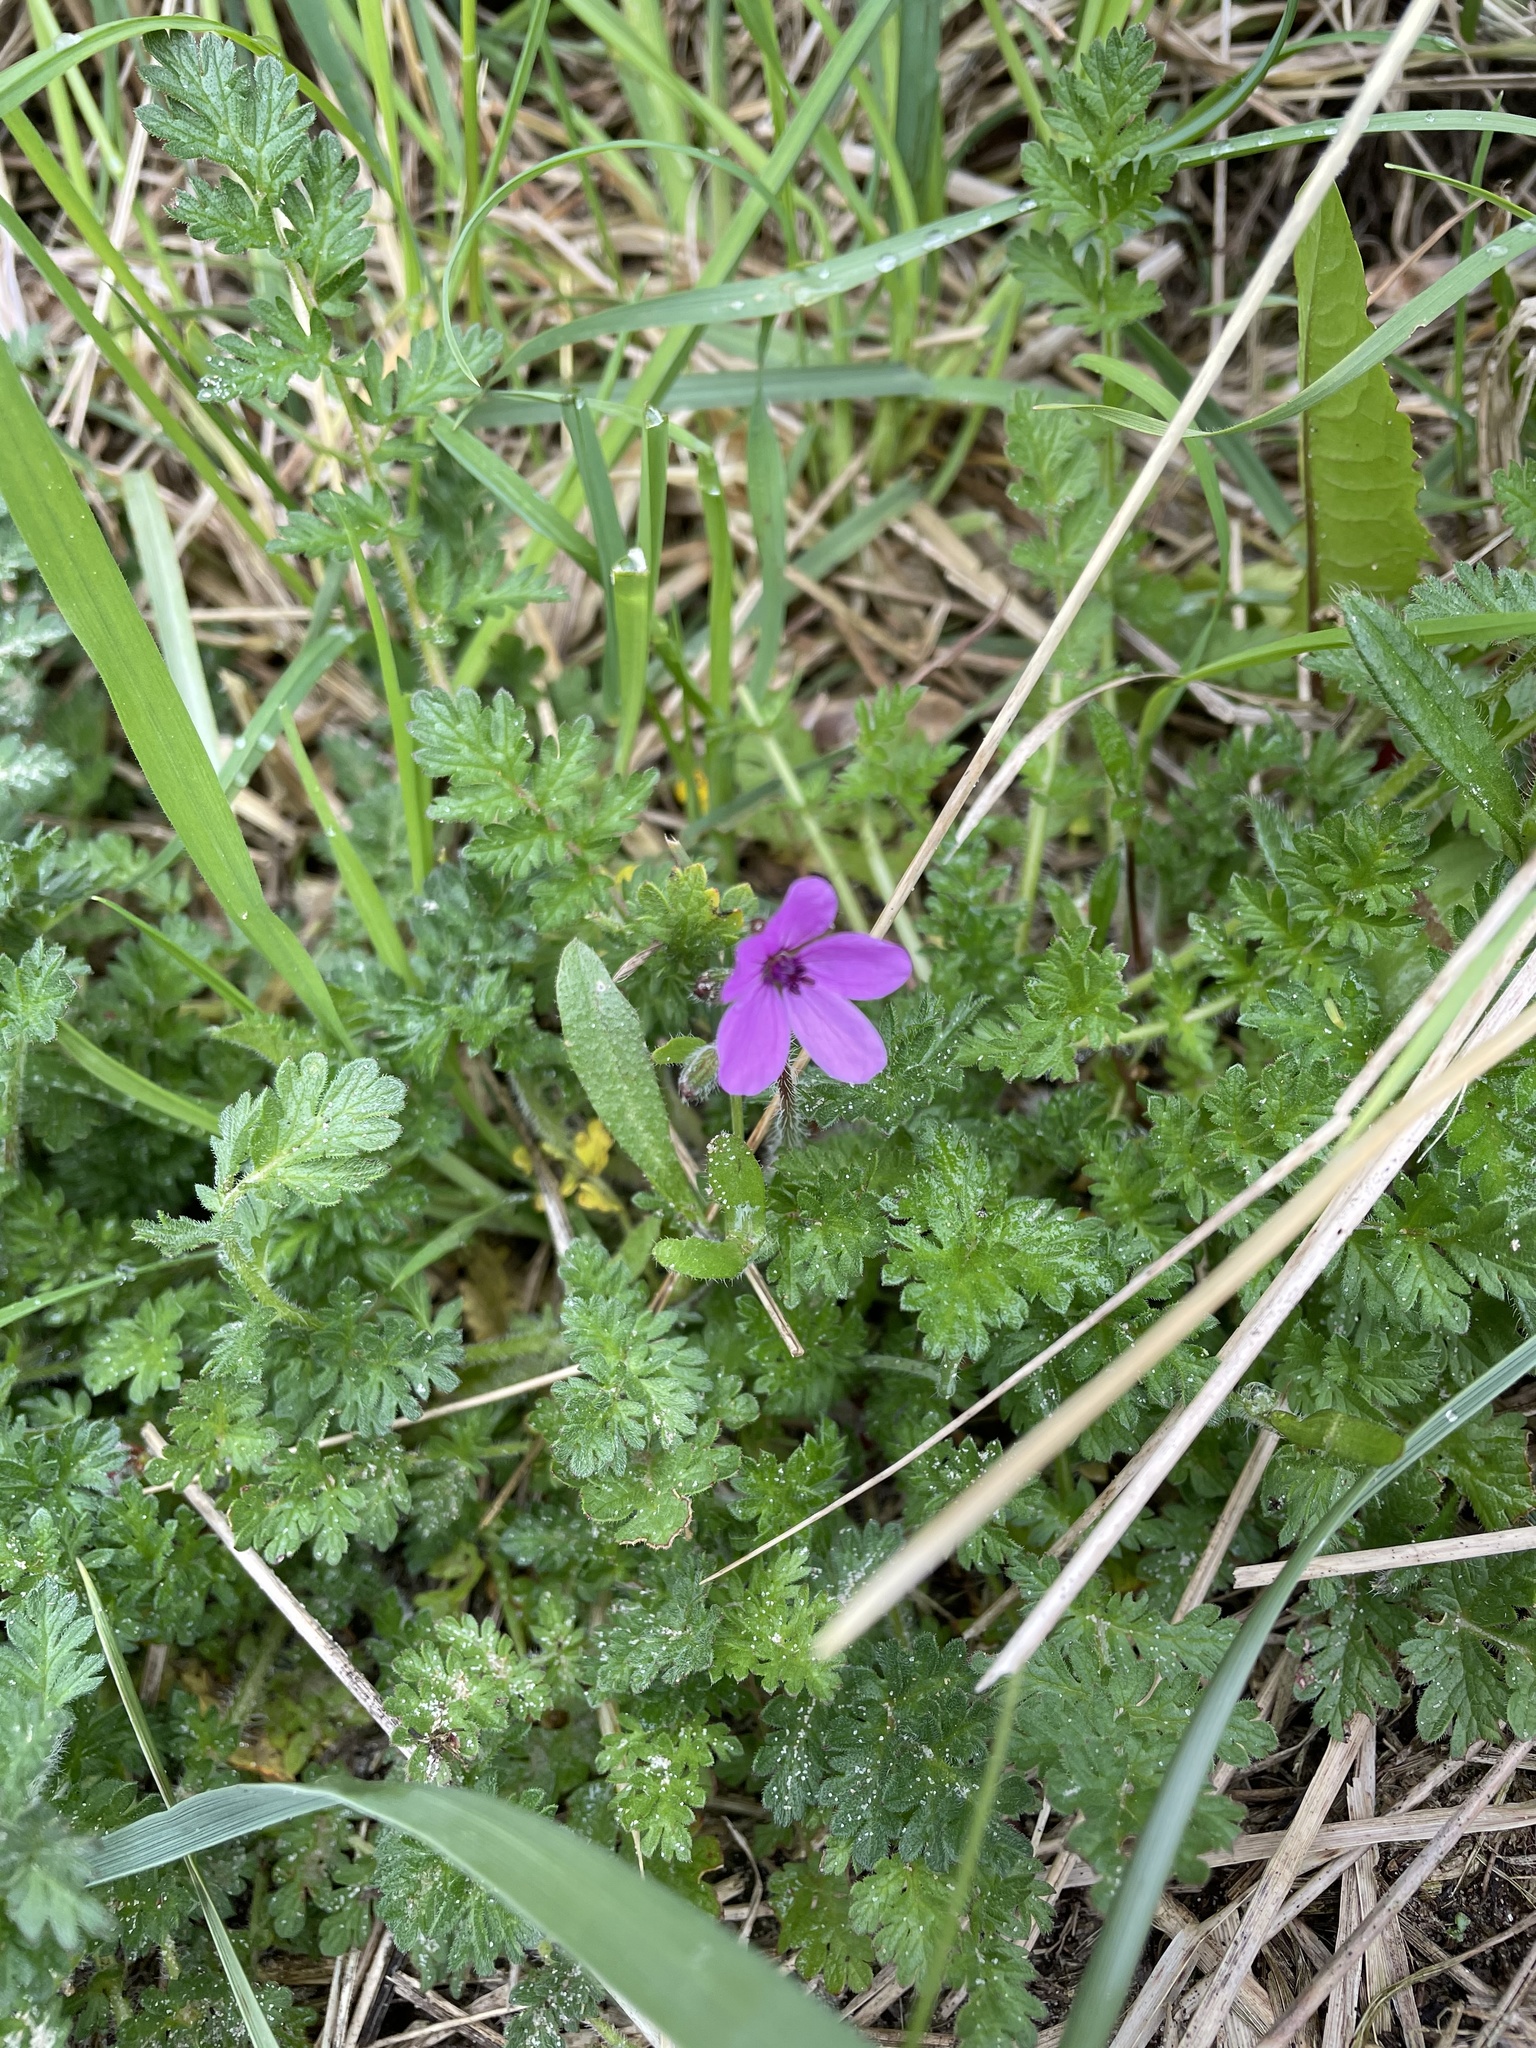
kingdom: Plantae
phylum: Tracheophyta
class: Magnoliopsida
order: Geraniales
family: Geraniaceae
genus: Erodium
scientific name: Erodium cicutarium
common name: Common stork's-bill
